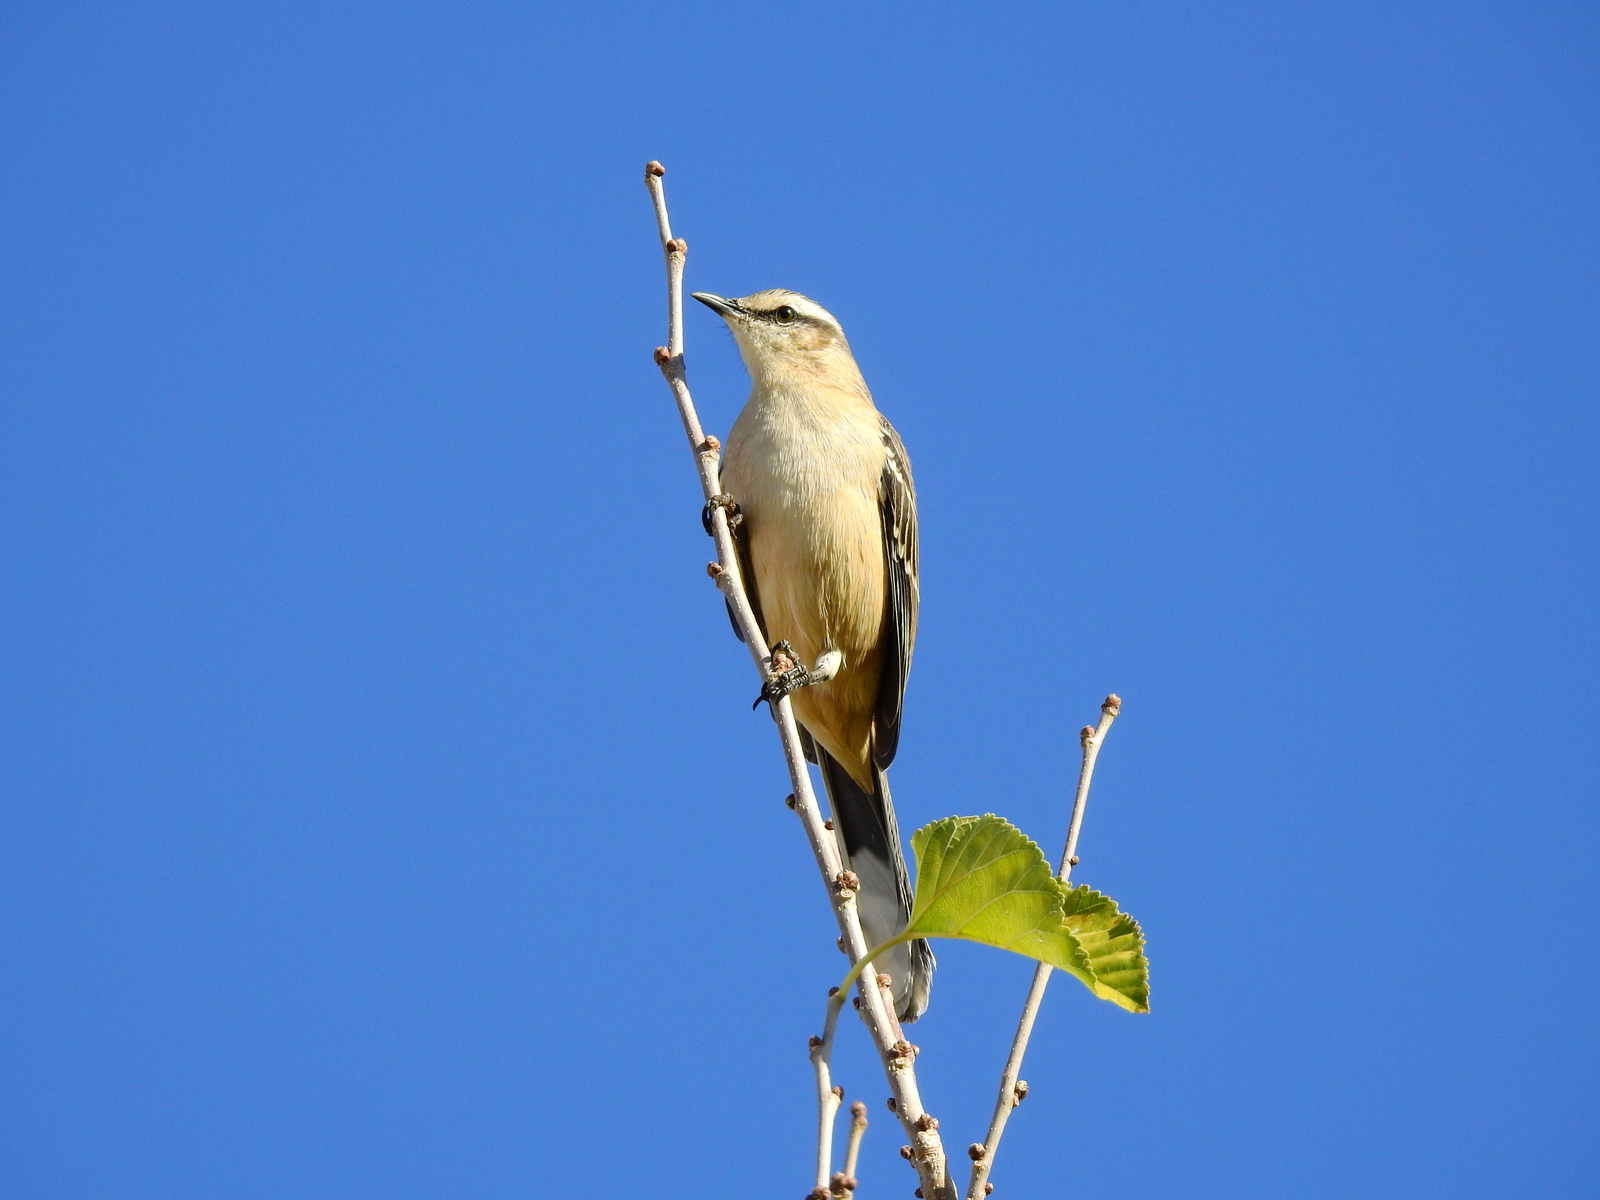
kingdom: Animalia
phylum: Chordata
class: Aves
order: Passeriformes
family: Mimidae
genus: Mimus
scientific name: Mimus saturninus
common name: Chalk-browed mockingbird
